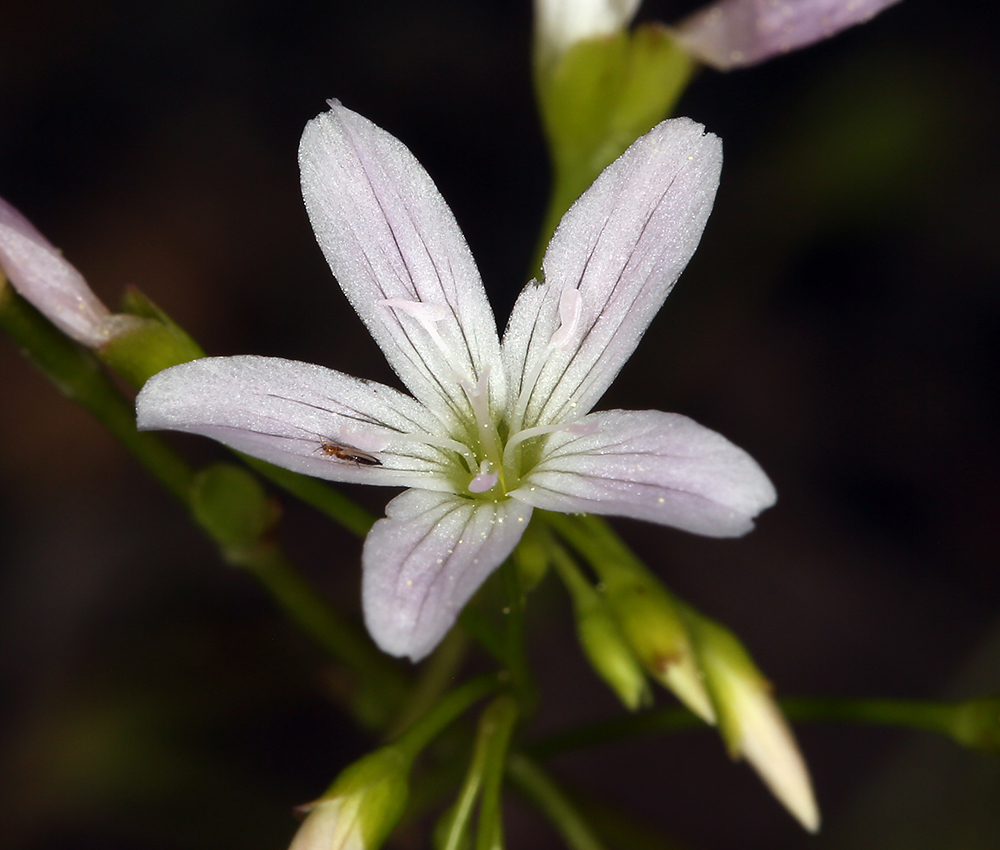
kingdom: Plantae
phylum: Tracheophyta
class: Magnoliopsida
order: Caryophyllales
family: Montiaceae
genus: Montia
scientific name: Montia parvifolia
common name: Small-leaved blinks
